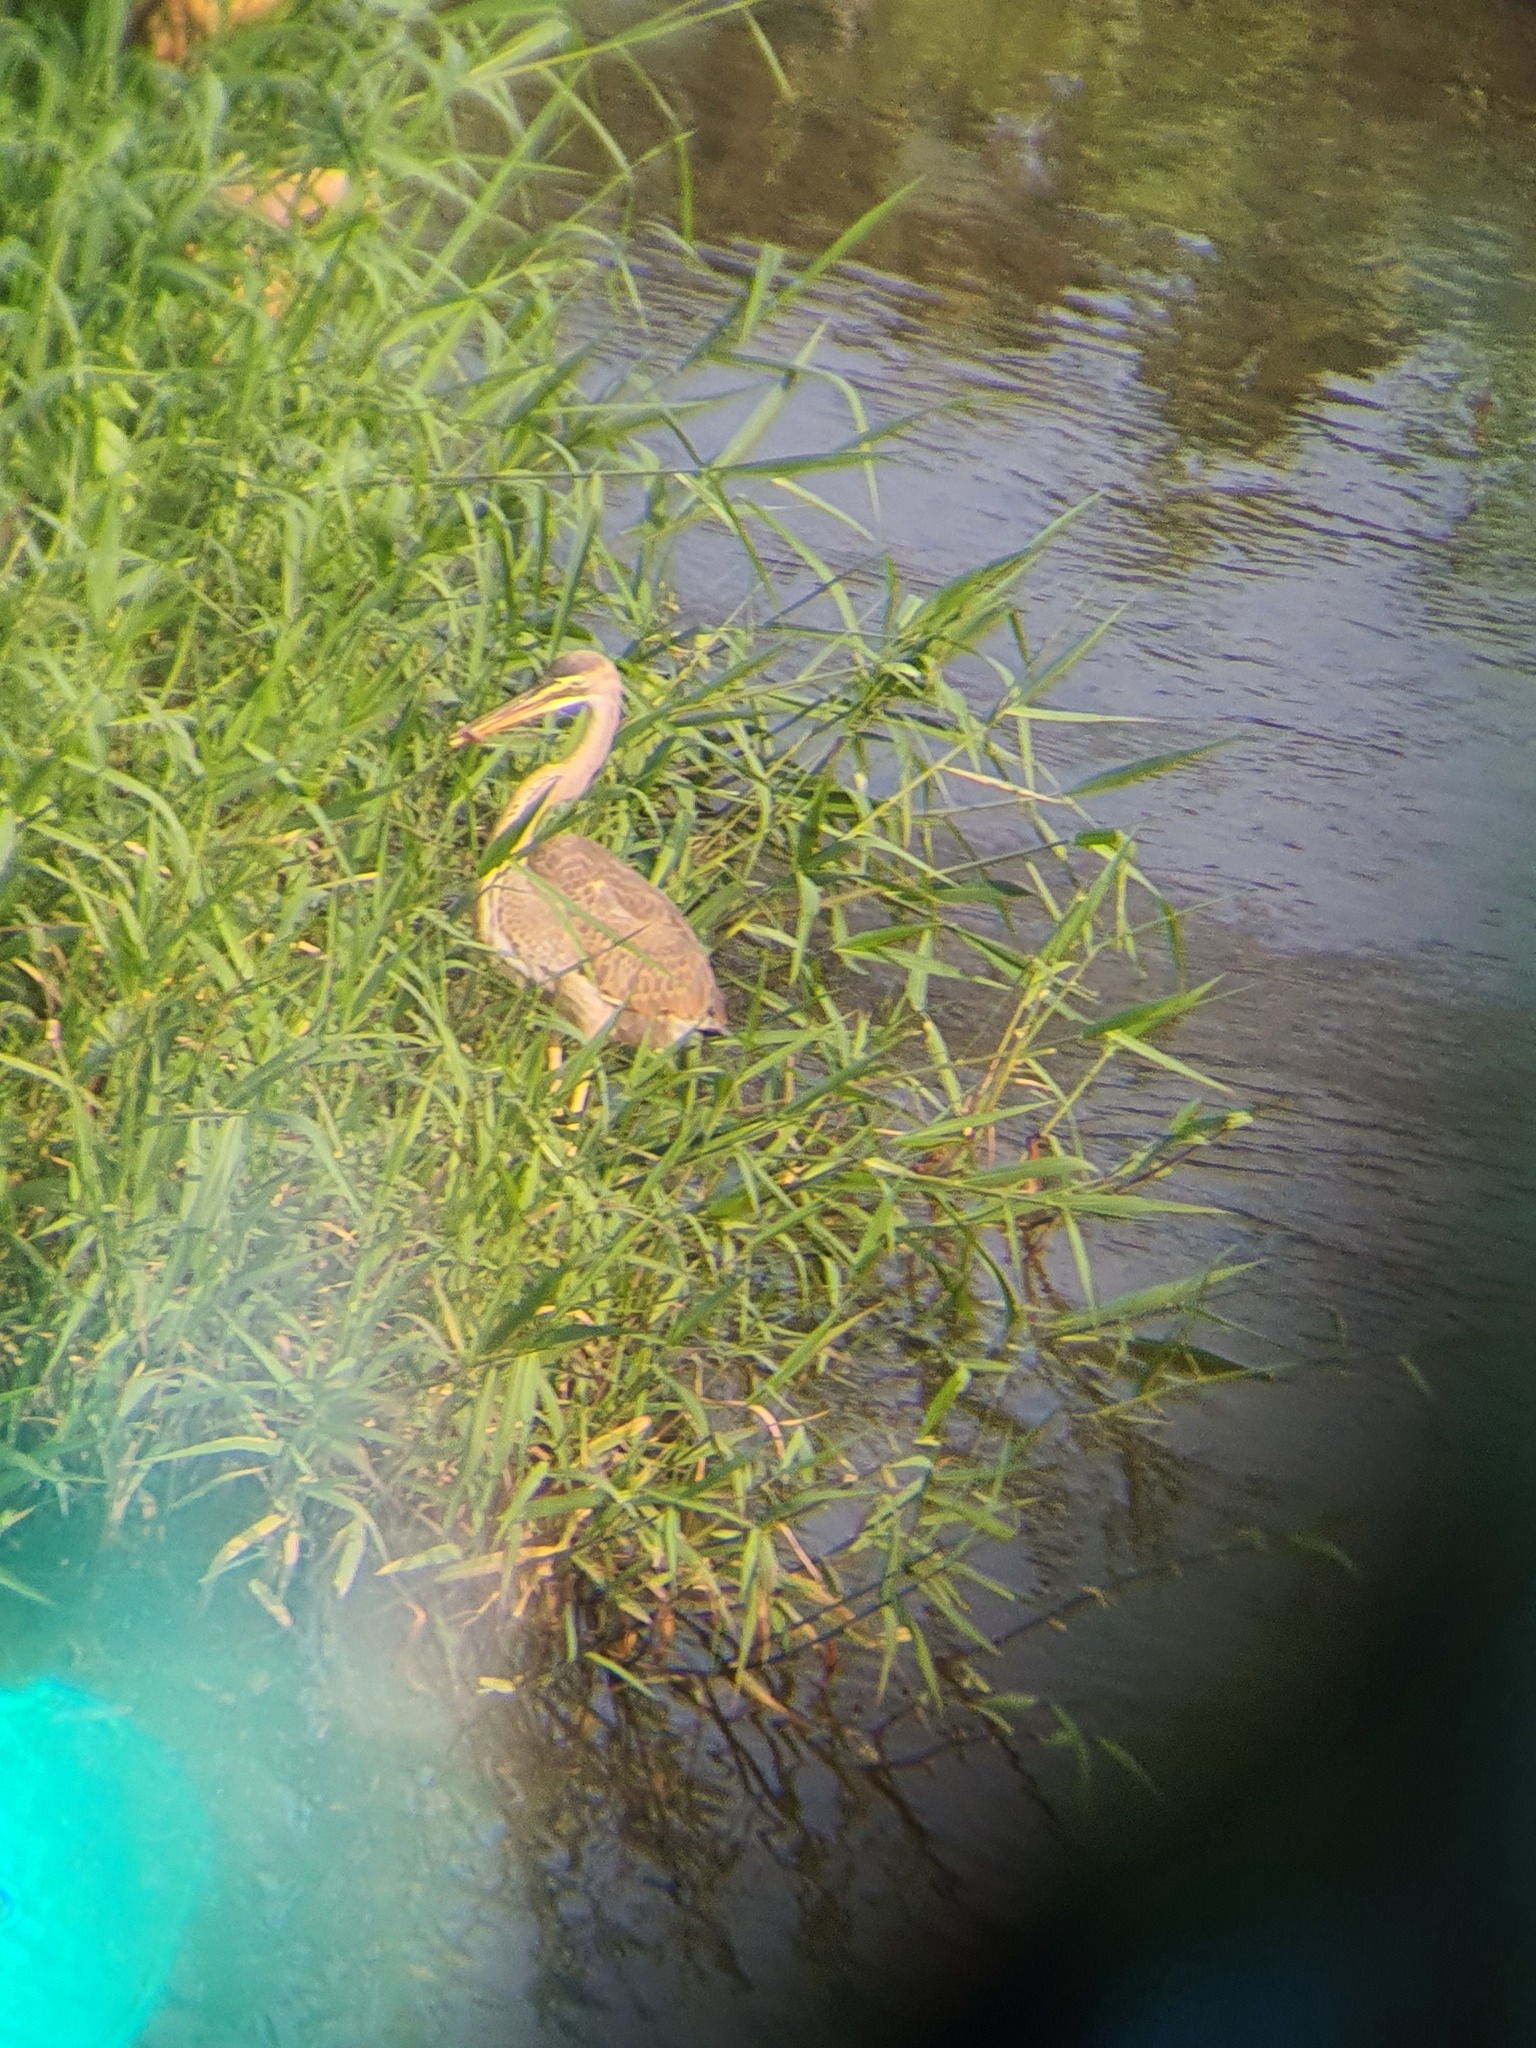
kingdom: Animalia
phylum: Chordata
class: Aves
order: Pelecaniformes
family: Ardeidae
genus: Ardea
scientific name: Ardea purpurea
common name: Purple heron
